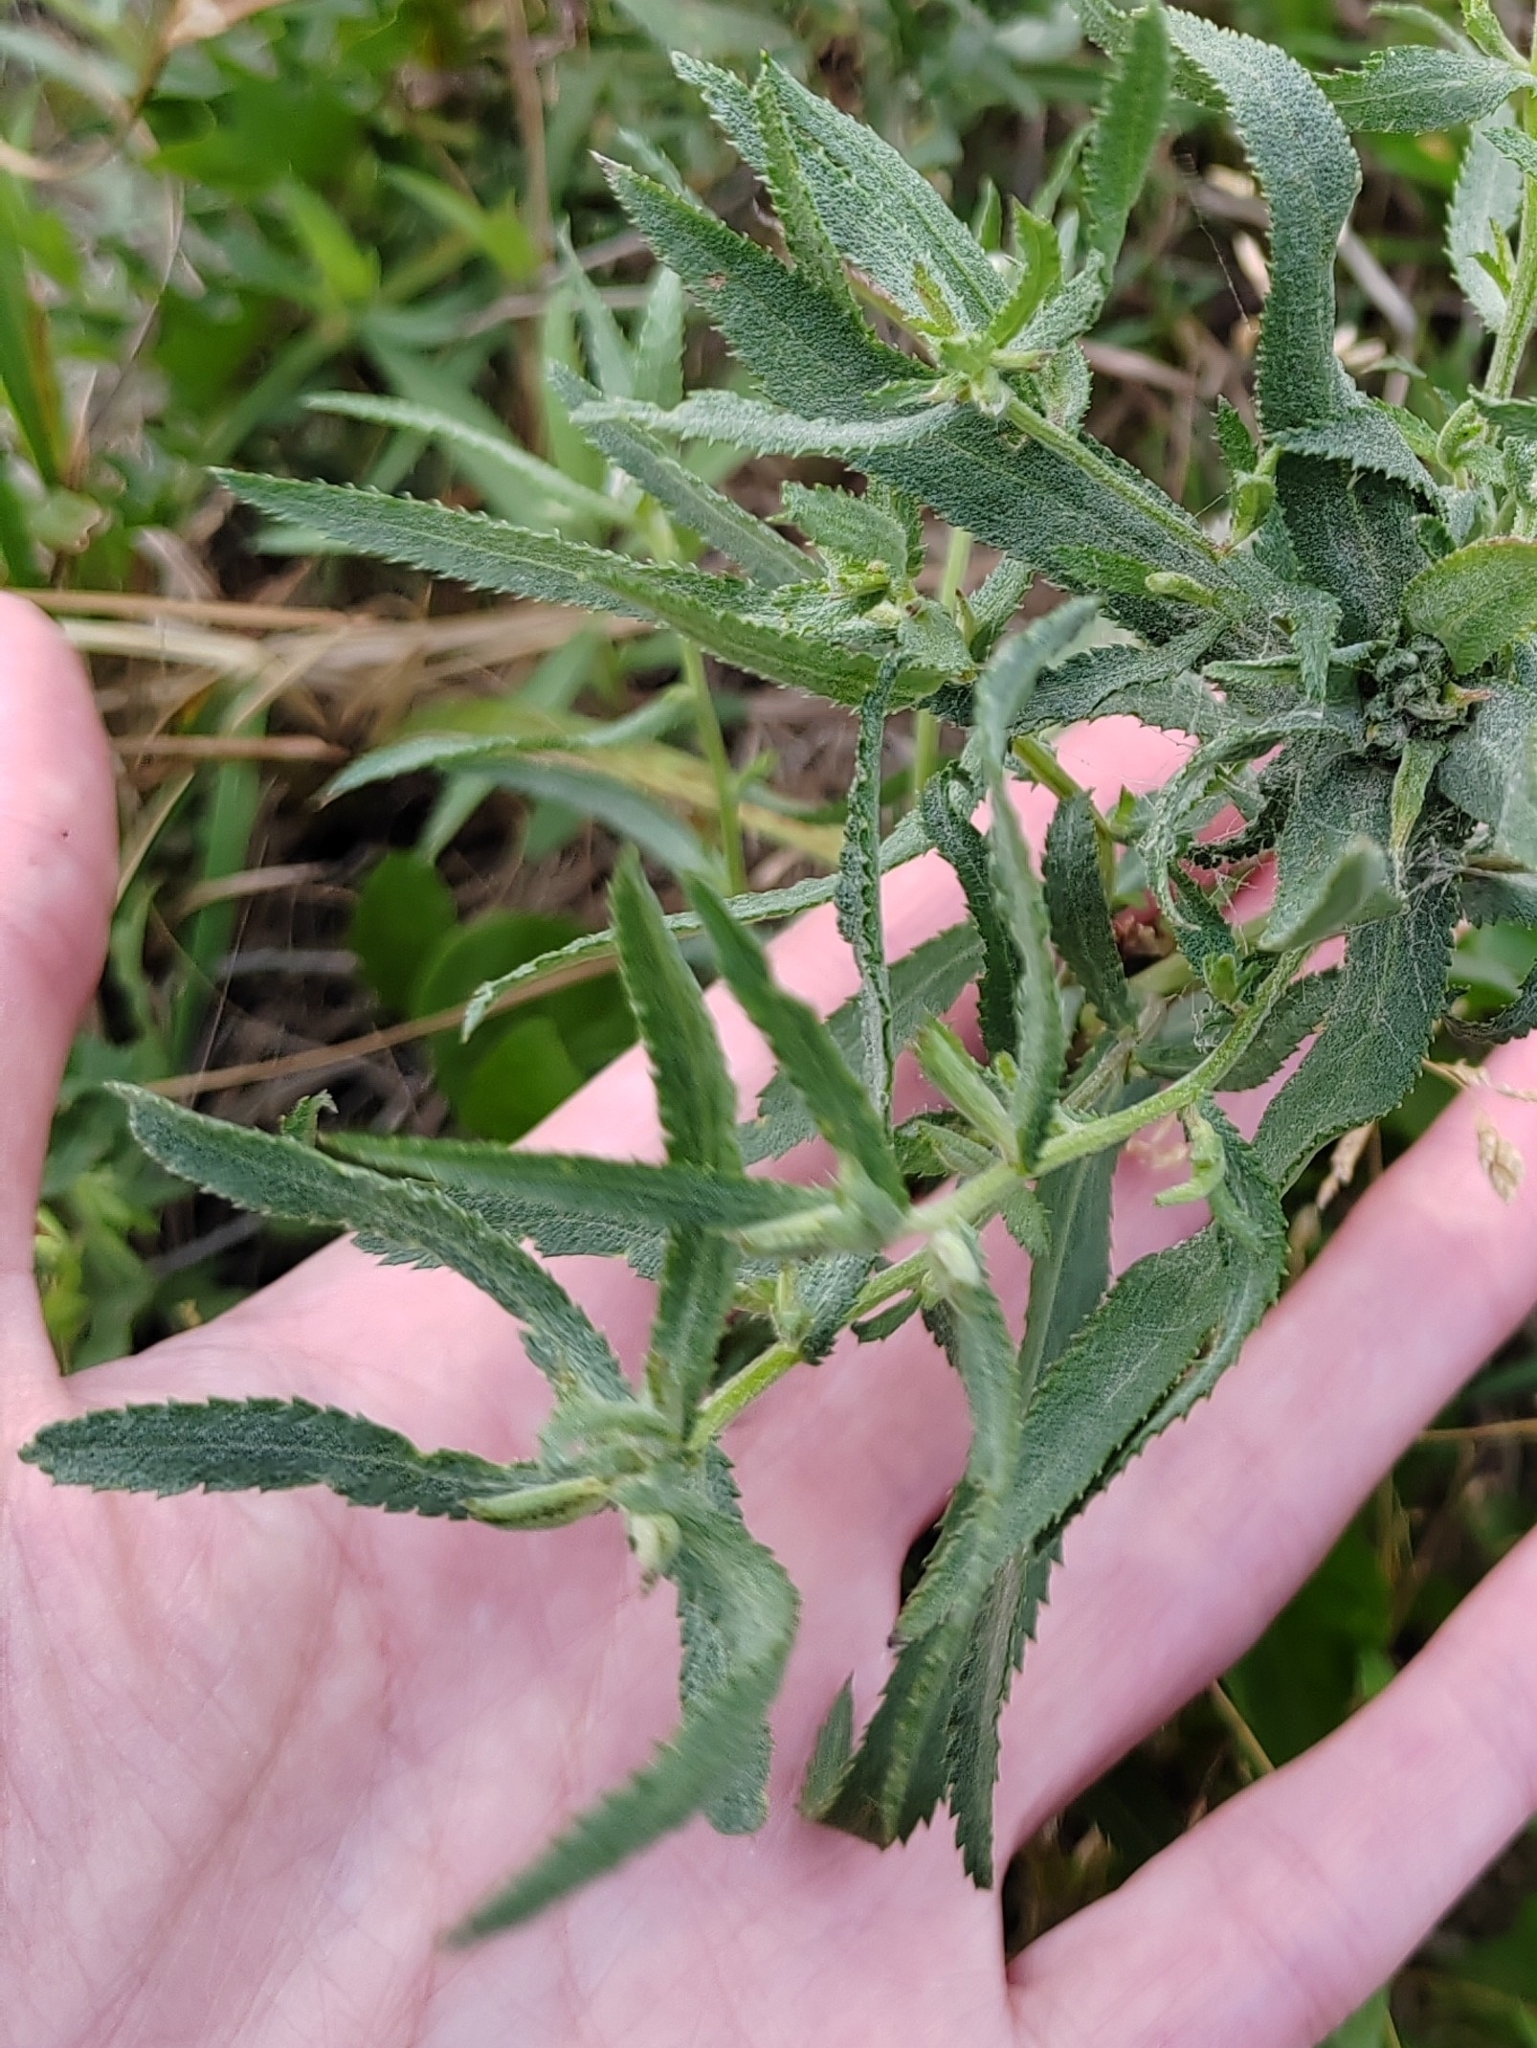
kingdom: Plantae
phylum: Tracheophyta
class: Magnoliopsida
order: Asterales
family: Asteraceae
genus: Achillea
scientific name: Achillea salicifolia
